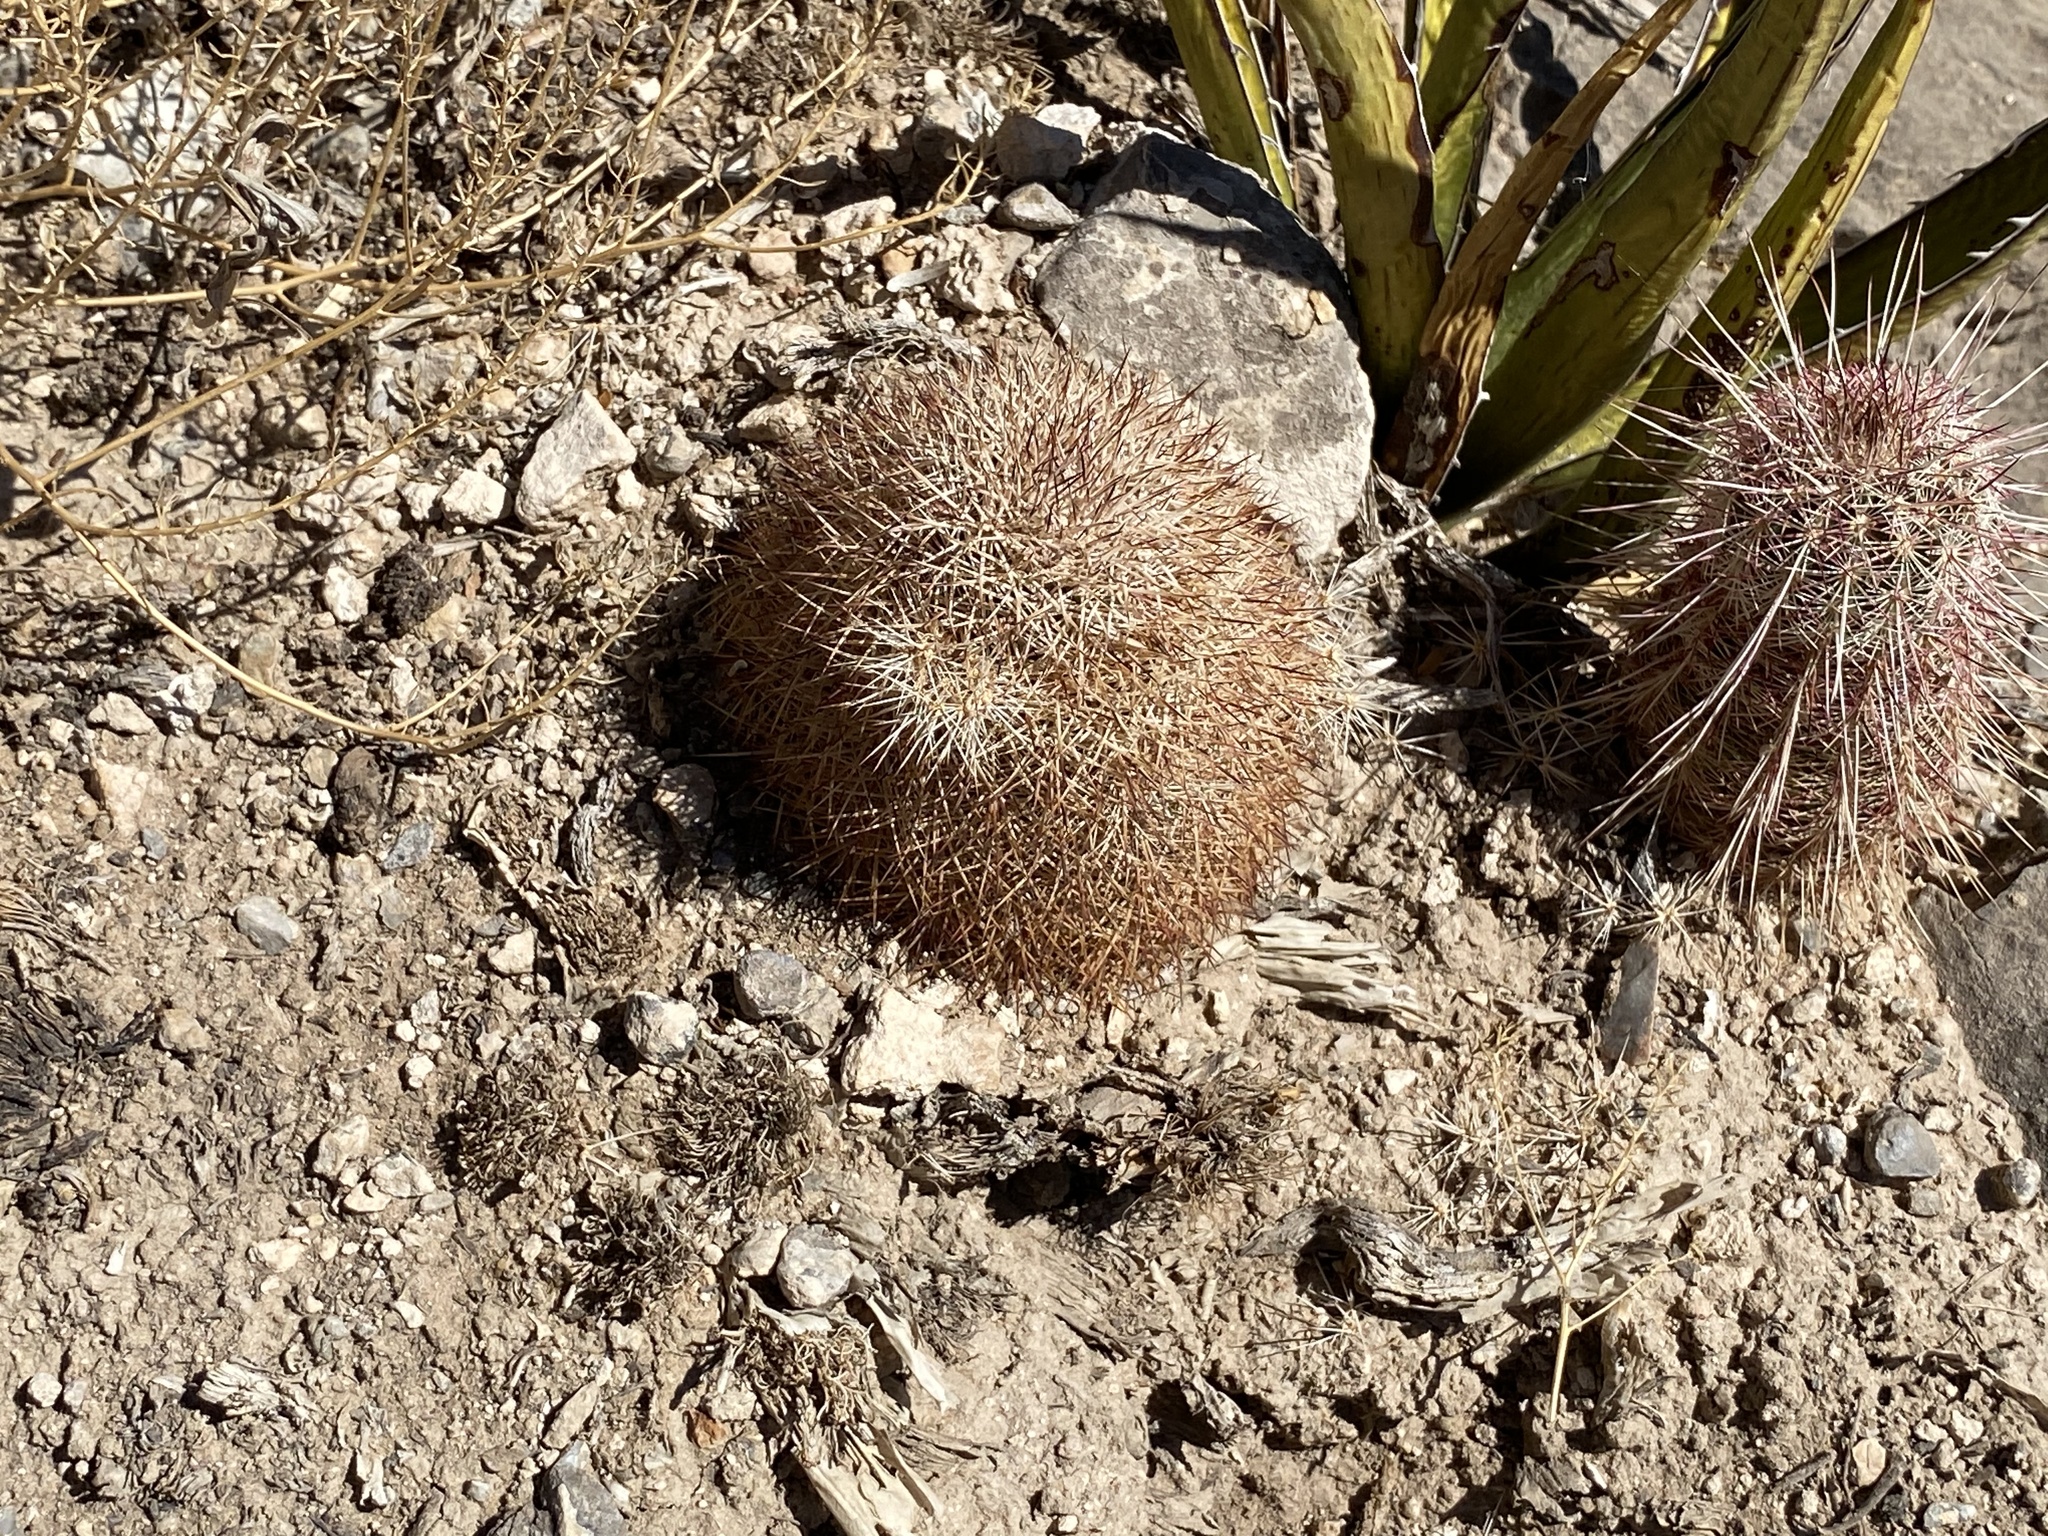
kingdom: Plantae
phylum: Tracheophyta
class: Magnoliopsida
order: Caryophyllales
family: Cactaceae
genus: Echinocereus
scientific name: Echinocereus dasyacanthus
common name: Spiny hedgehog cactus
